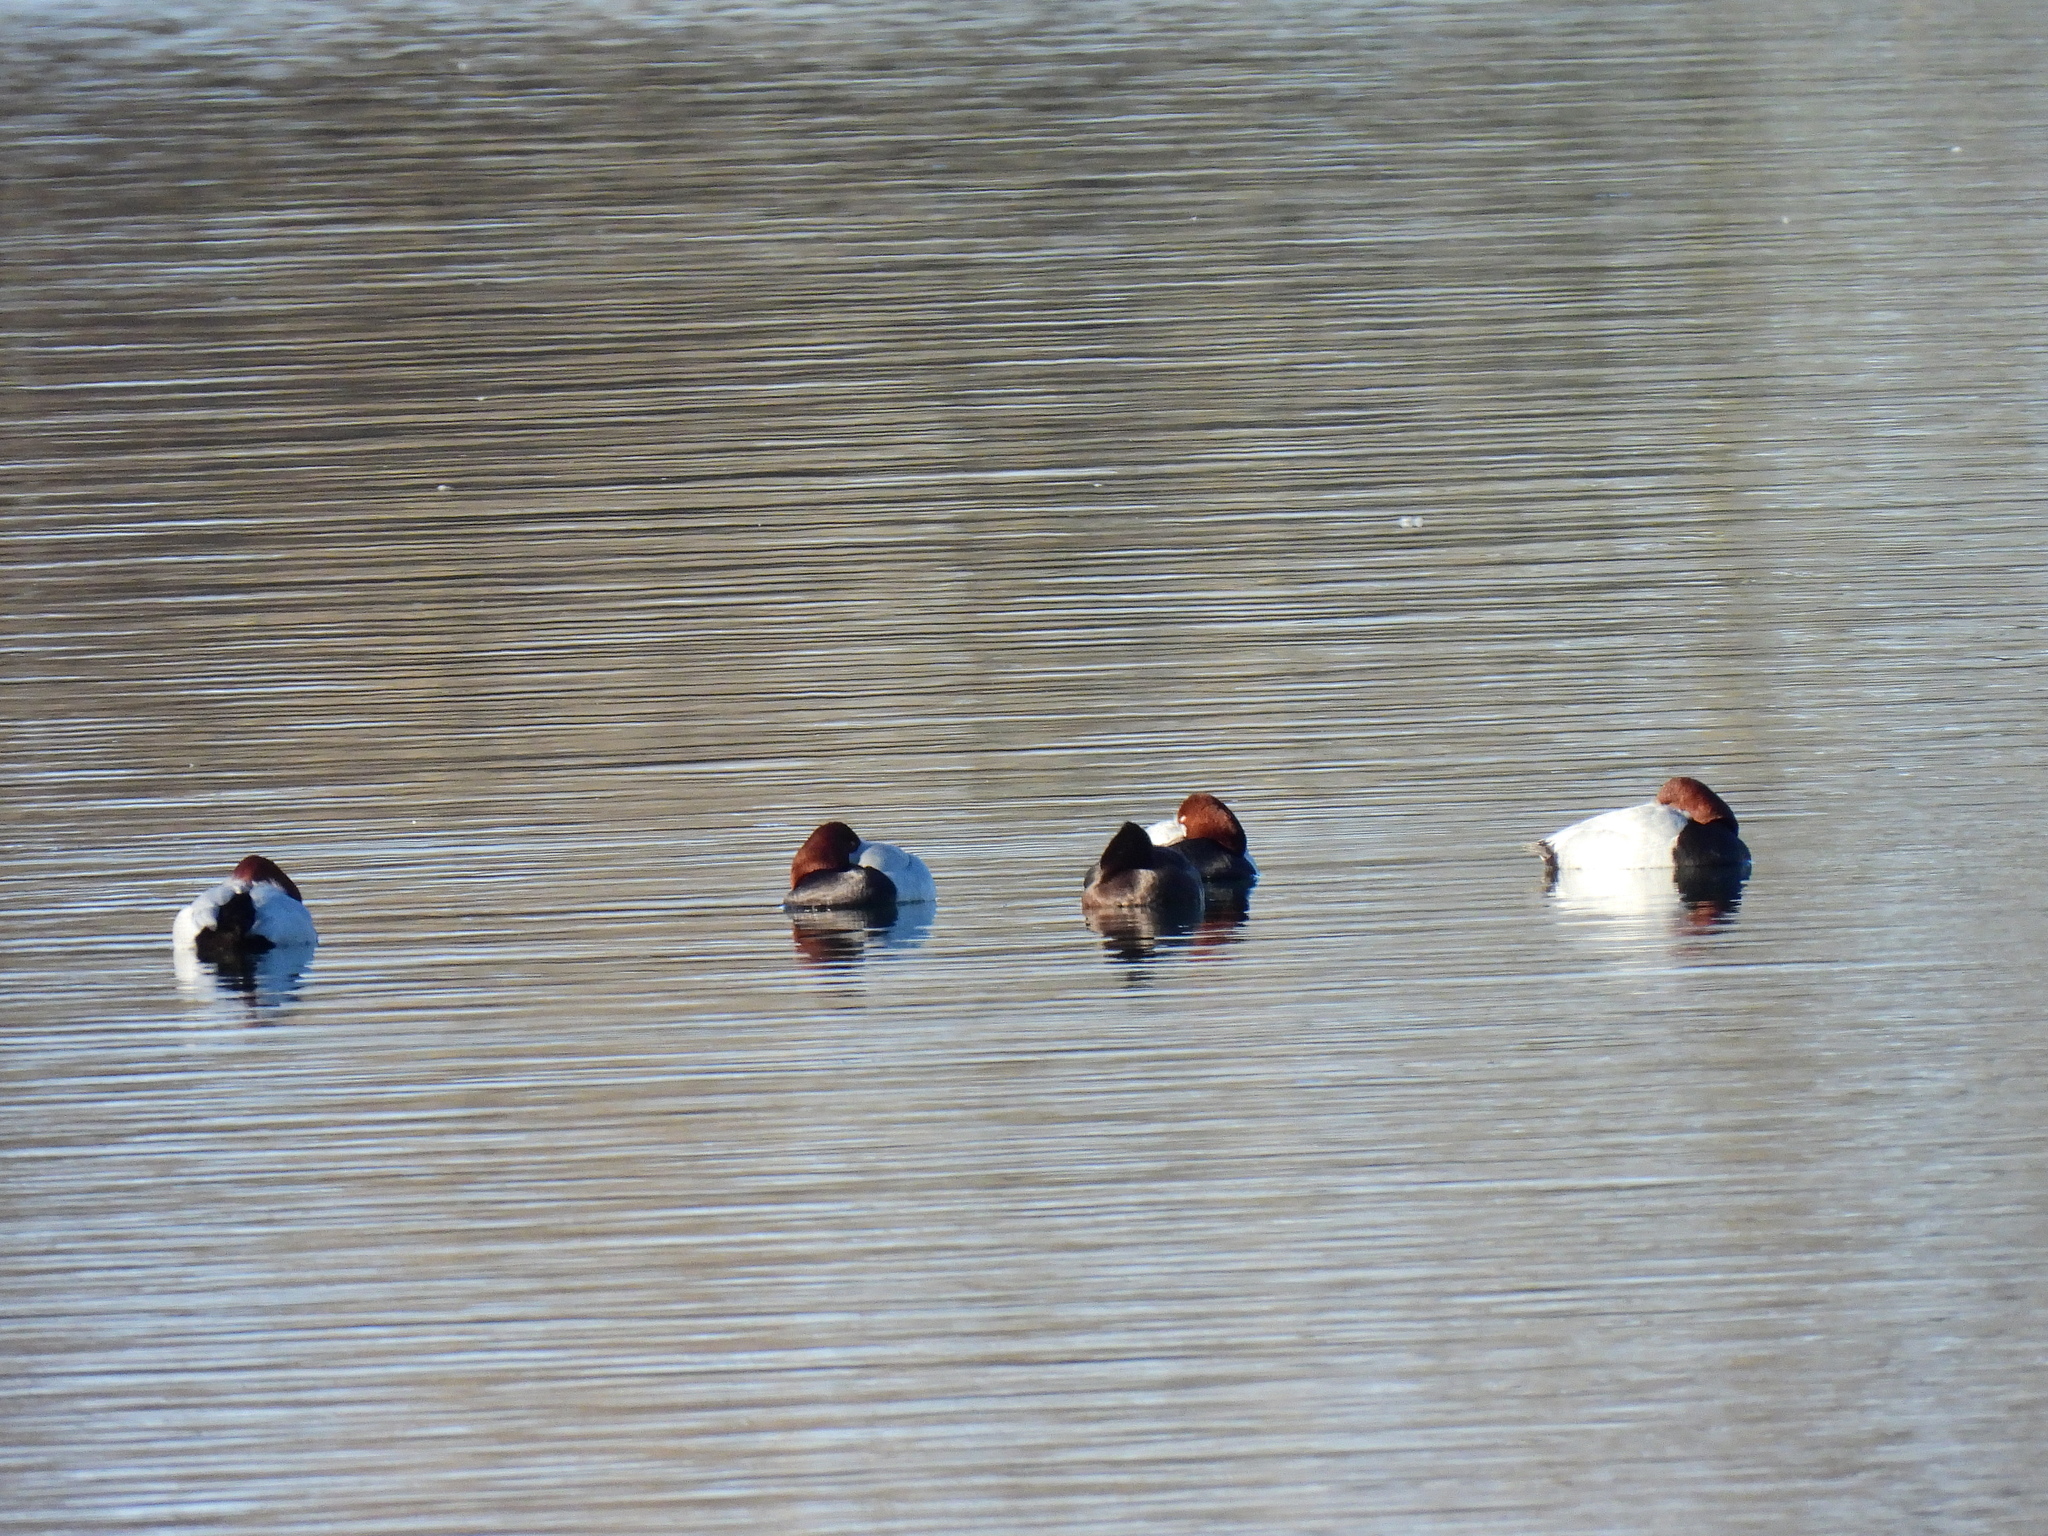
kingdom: Animalia
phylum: Chordata
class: Aves
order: Anseriformes
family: Anatidae
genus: Aythya
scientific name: Aythya ferina
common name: Common pochard
